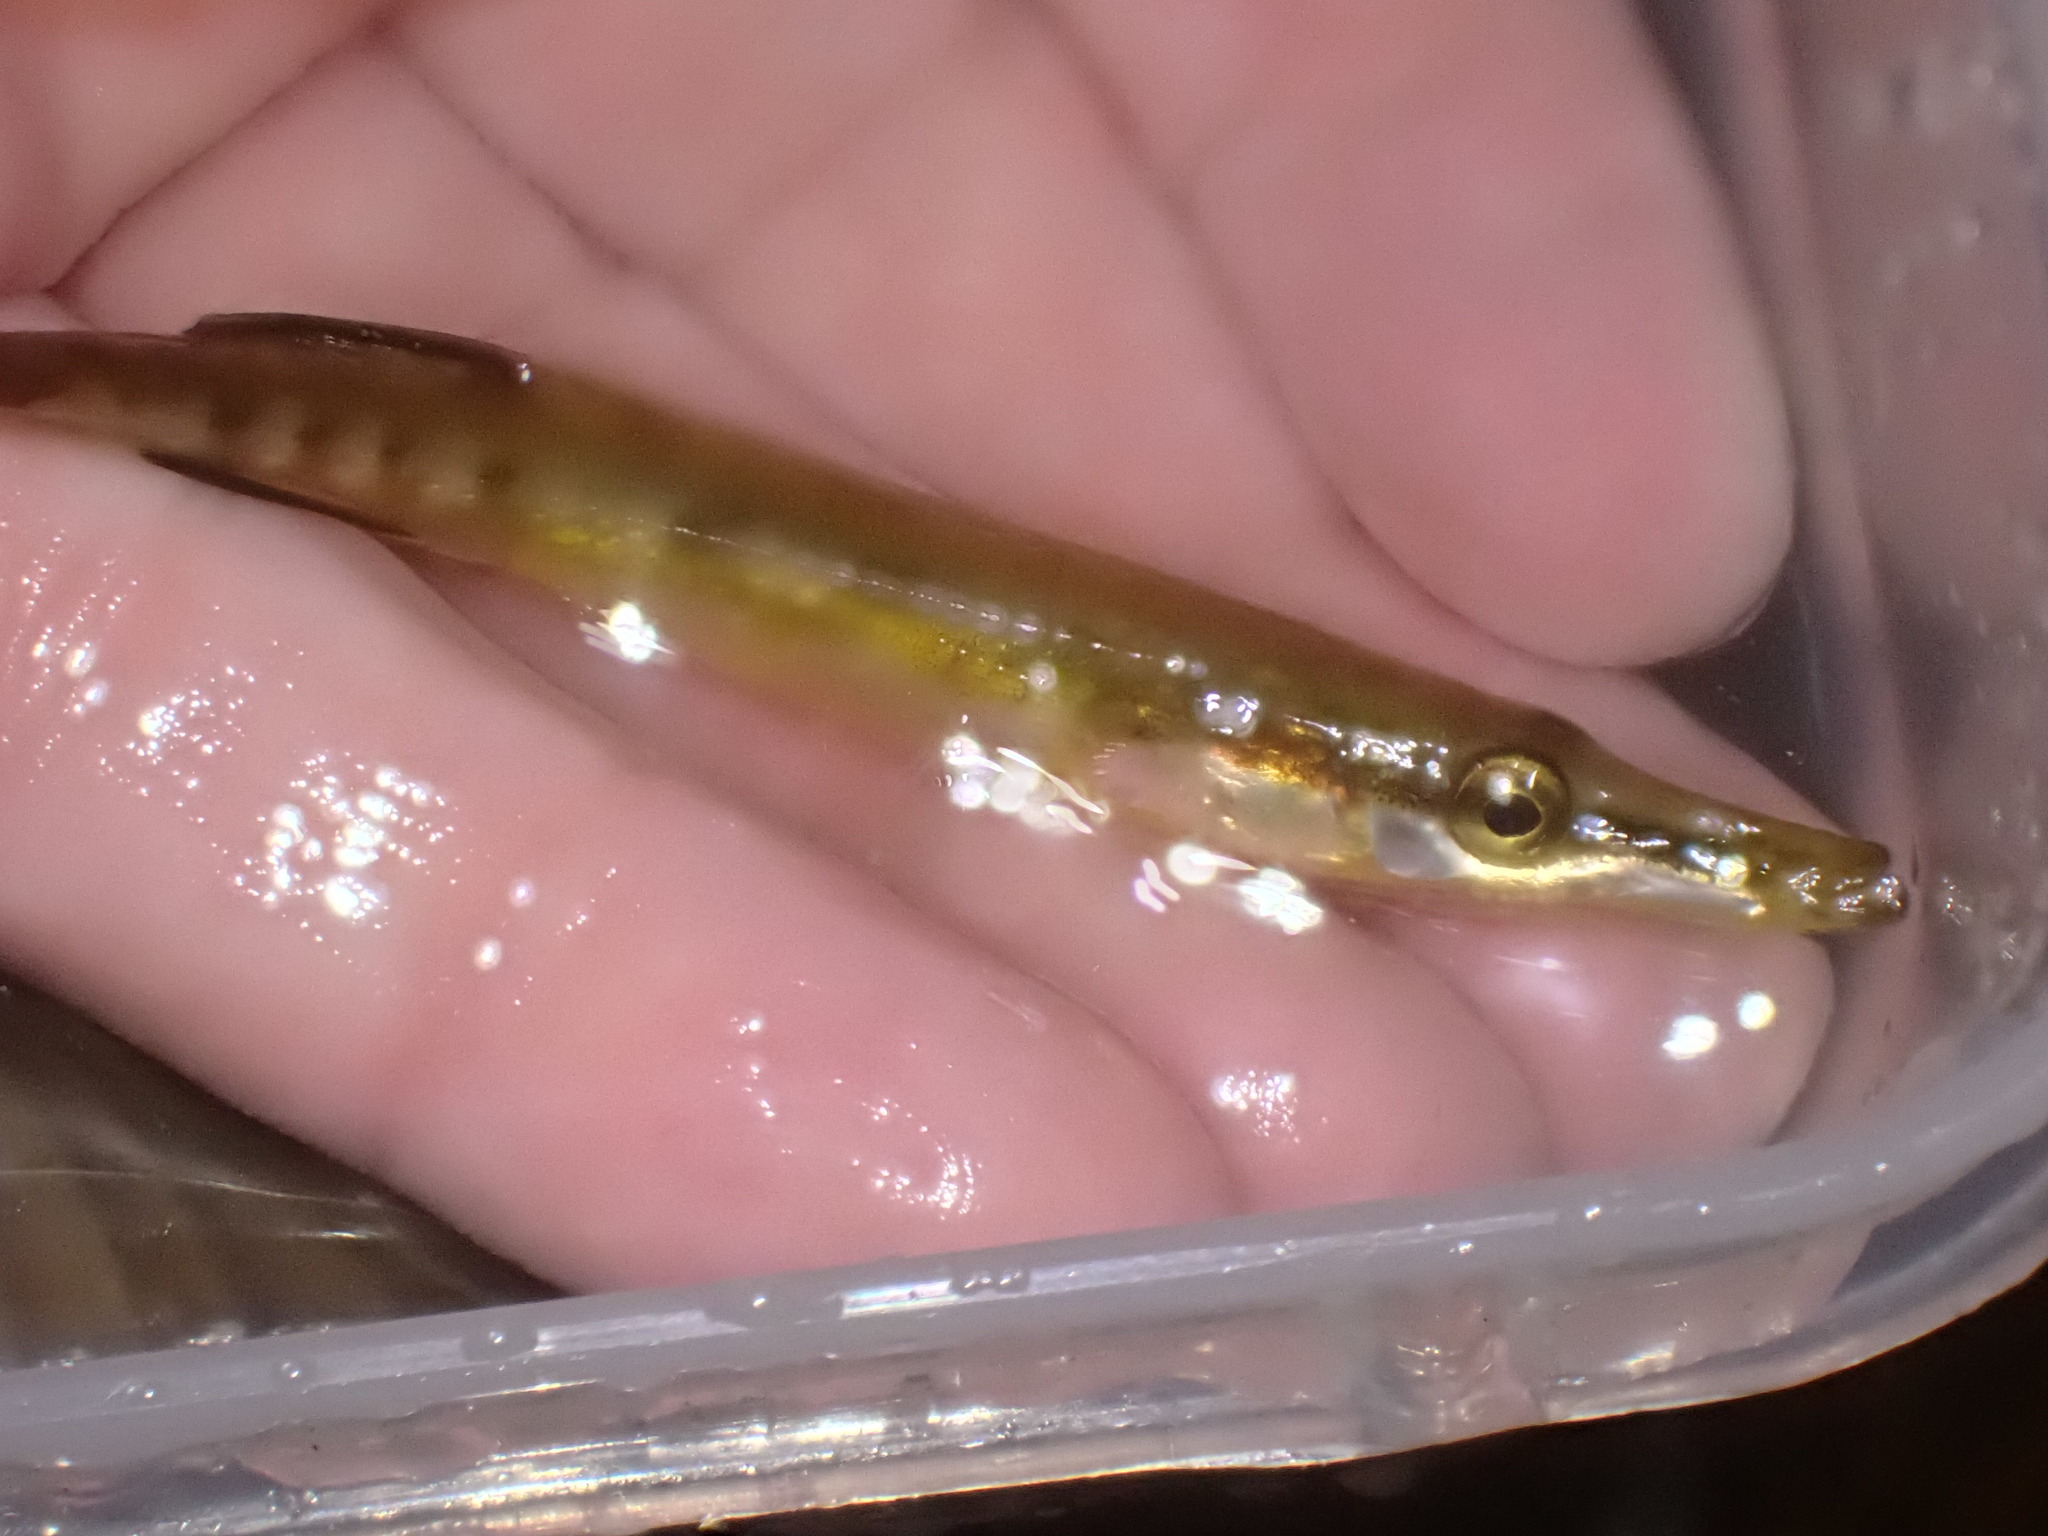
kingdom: Animalia
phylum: Chordata
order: Gasterosteiformes
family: Gasterosteidae
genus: Spinachia
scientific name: Spinachia spinachia
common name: Fifteen-spined stickleback
